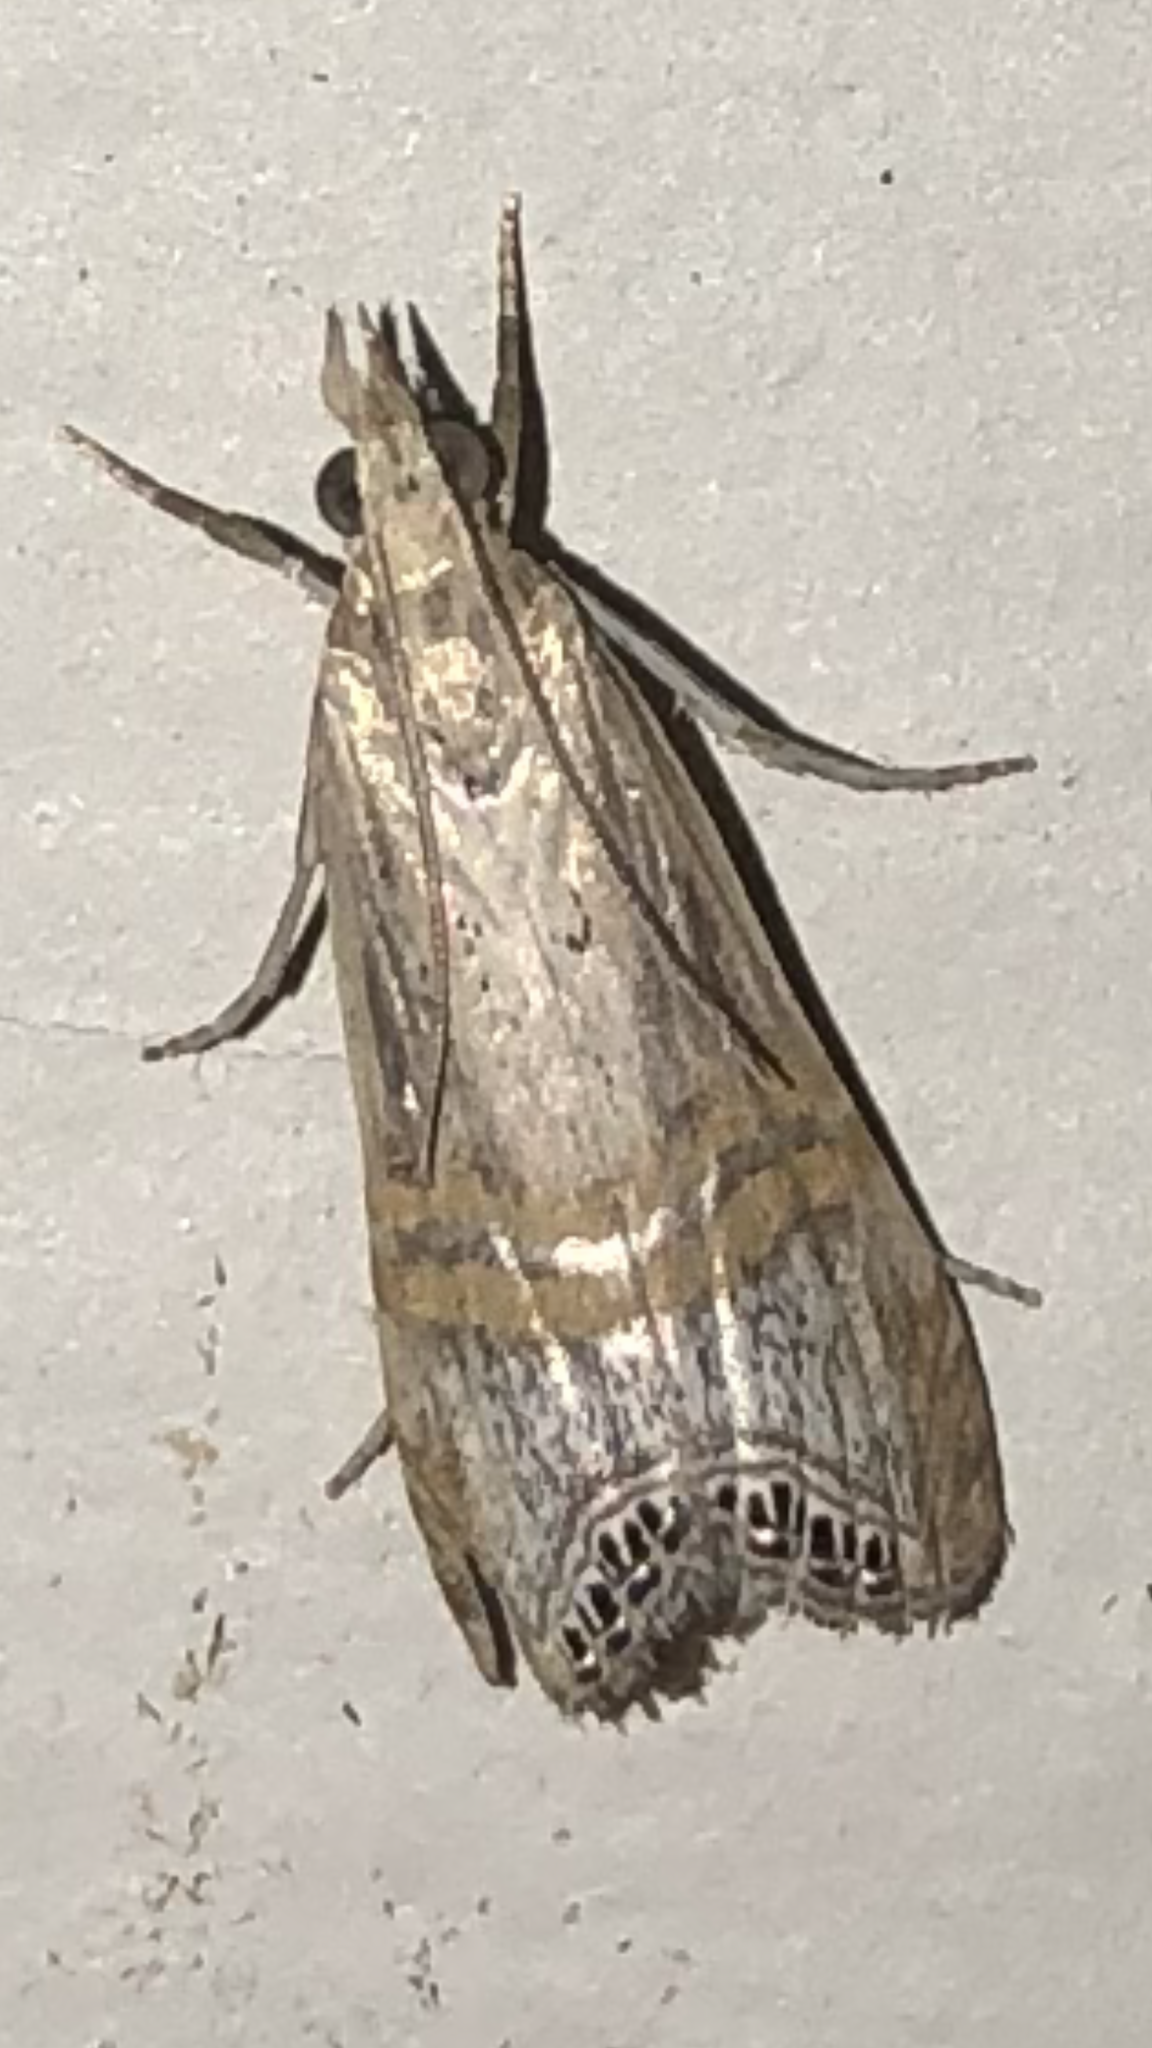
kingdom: Animalia
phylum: Arthropoda
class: Insecta
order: Lepidoptera
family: Crambidae
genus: Euchromius
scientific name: Euchromius ocellea
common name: Necklace veneer moth
